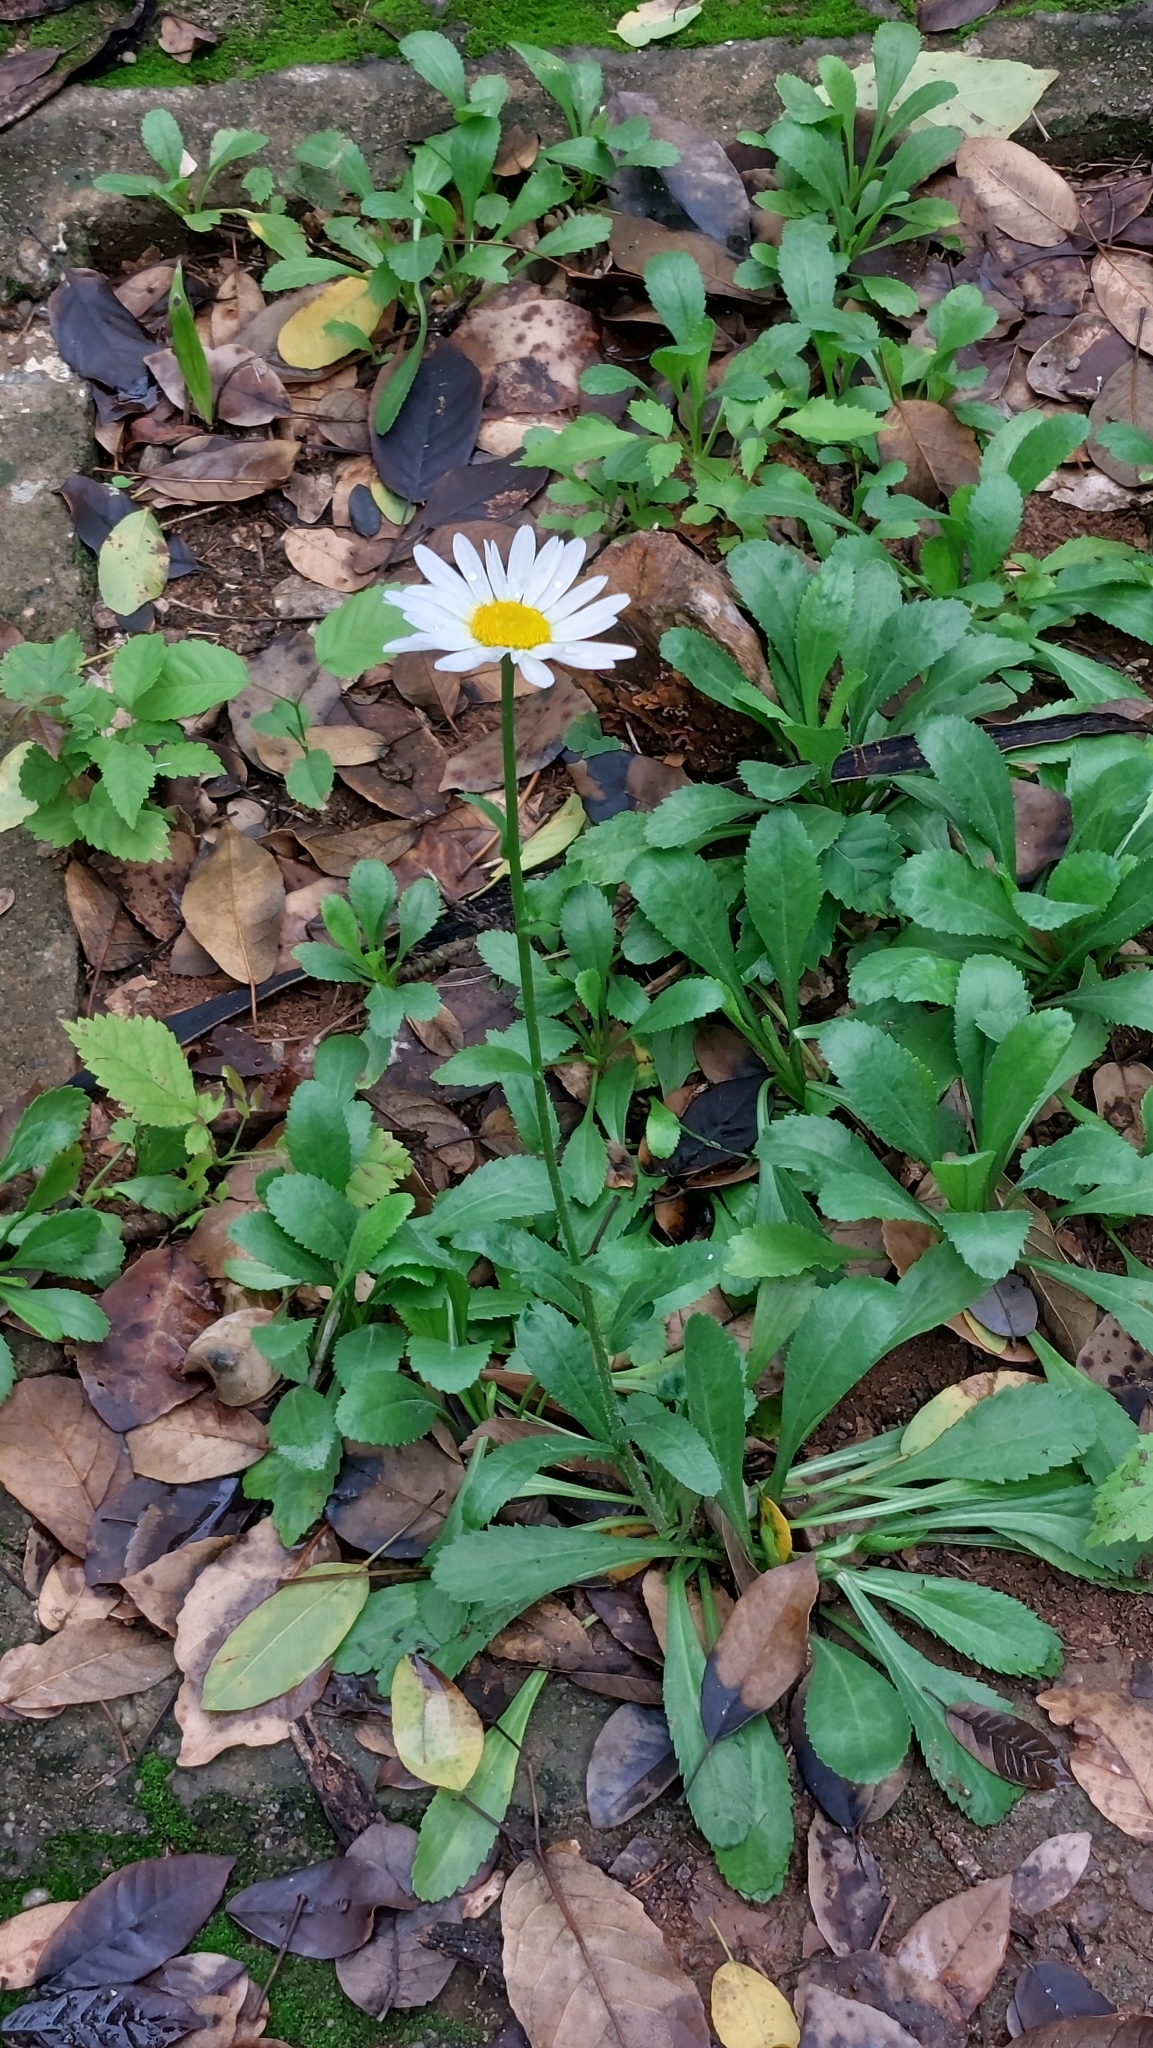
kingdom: Plantae
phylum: Tracheophyta
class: Magnoliopsida
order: Asterales
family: Asteraceae
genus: Leucanthemum
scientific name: Leucanthemum maximum
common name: Max chrysanthemum
